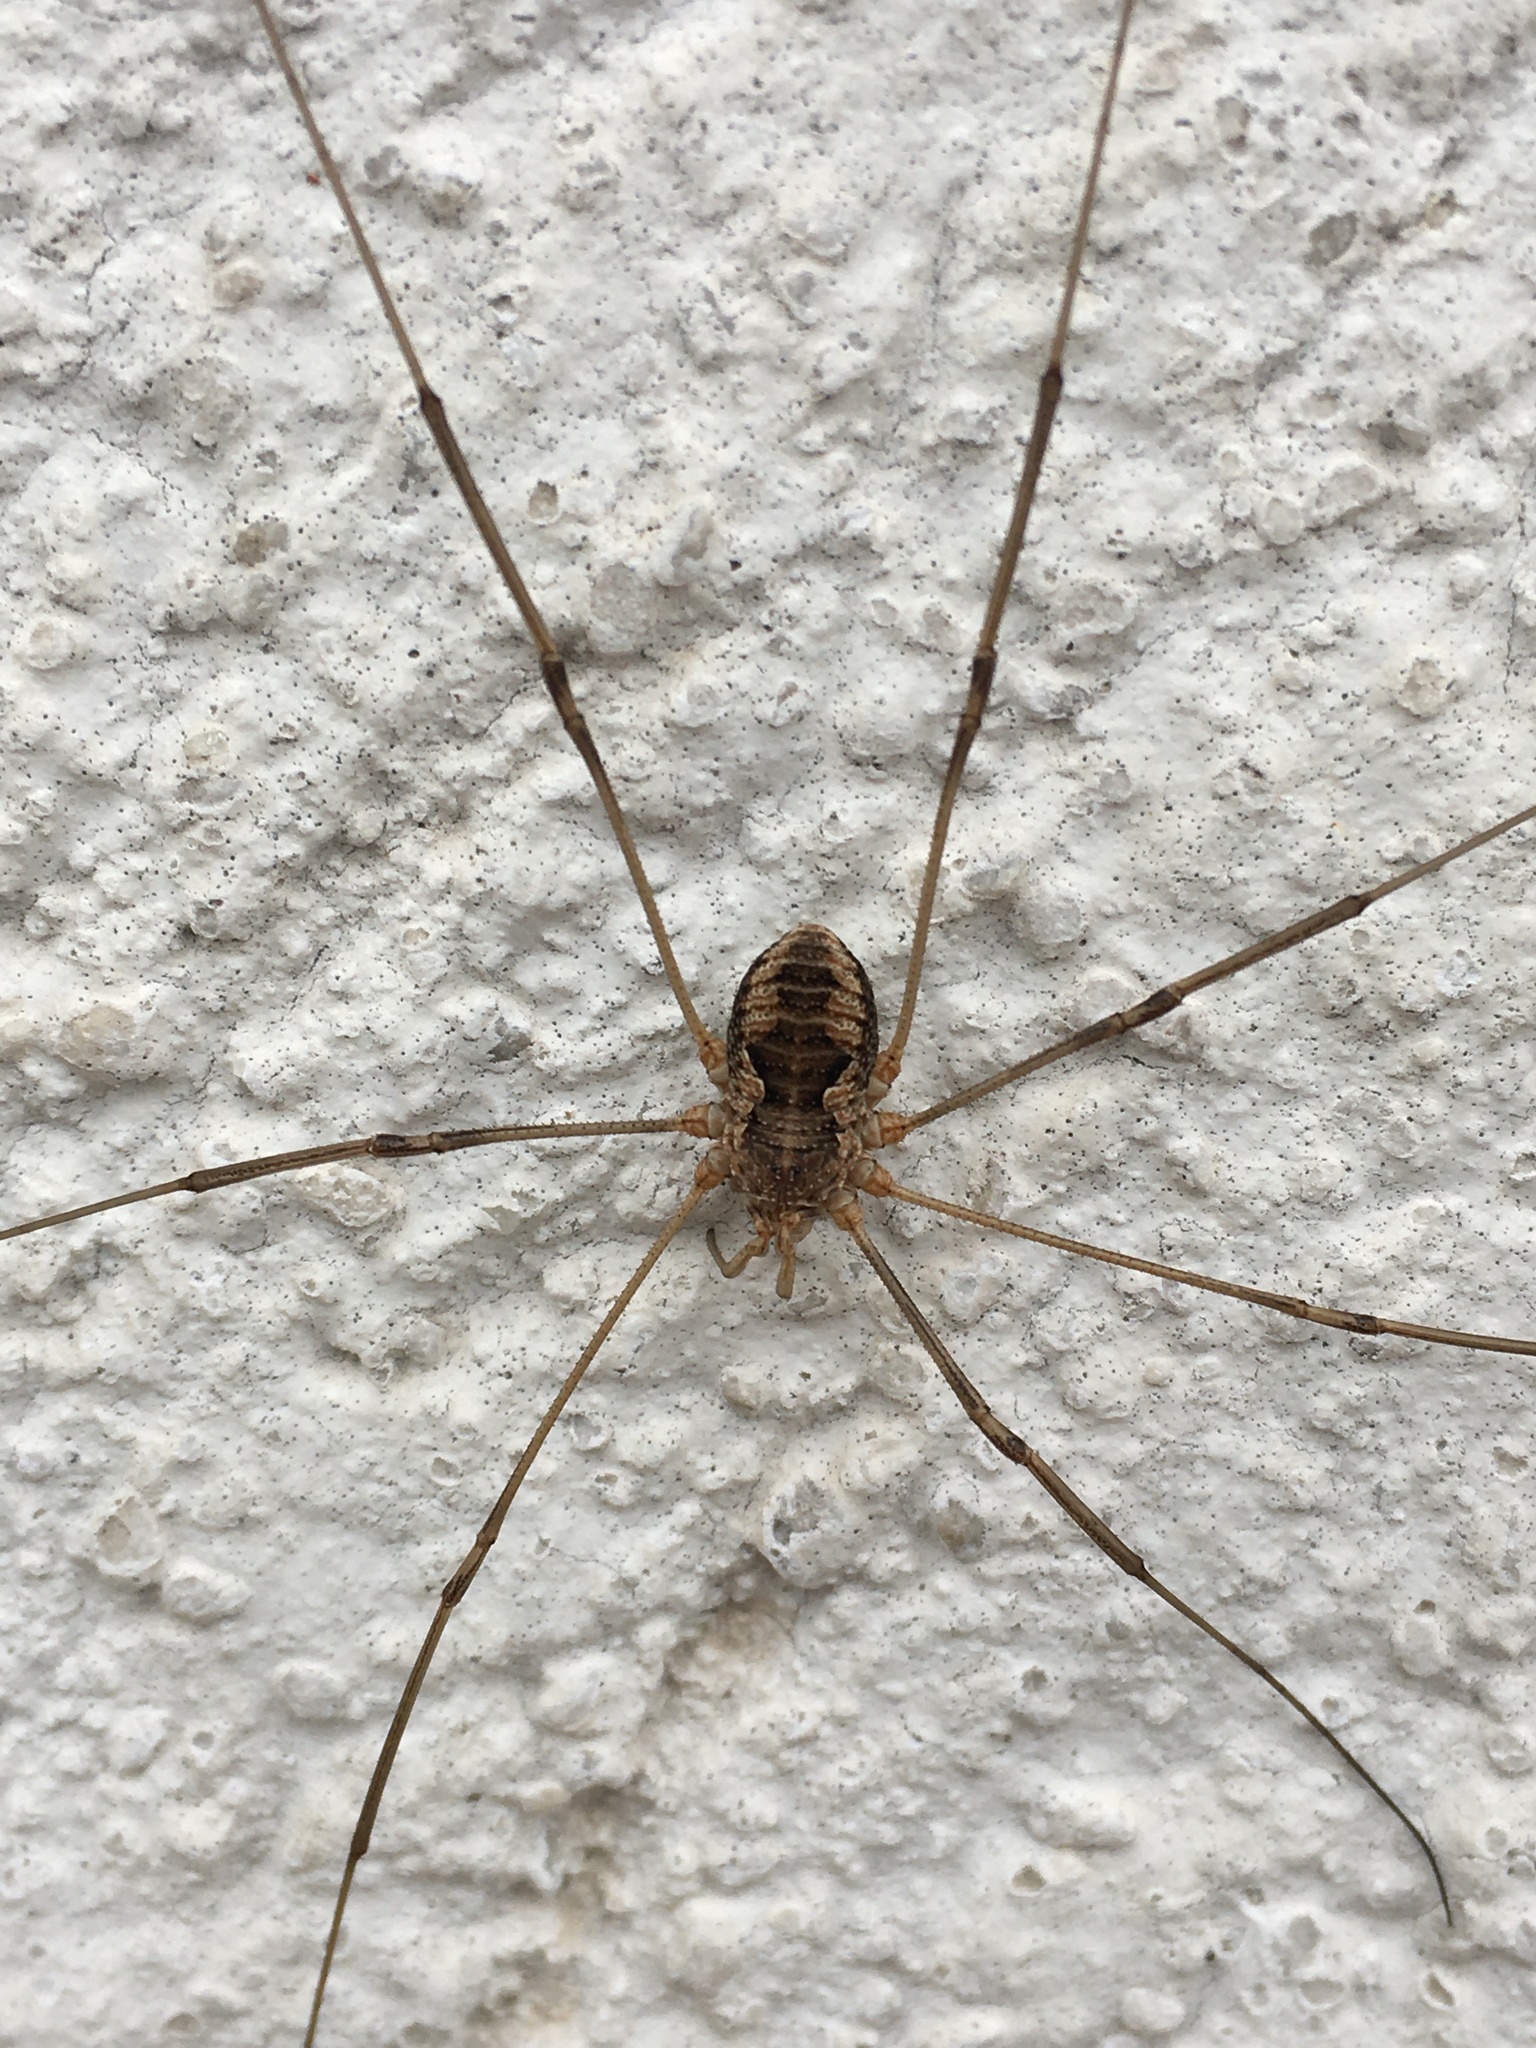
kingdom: Animalia
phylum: Arthropoda
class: Arachnida
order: Opiliones
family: Phalangiidae
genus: Phalangium
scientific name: Phalangium opilio
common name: Daddy longleg
